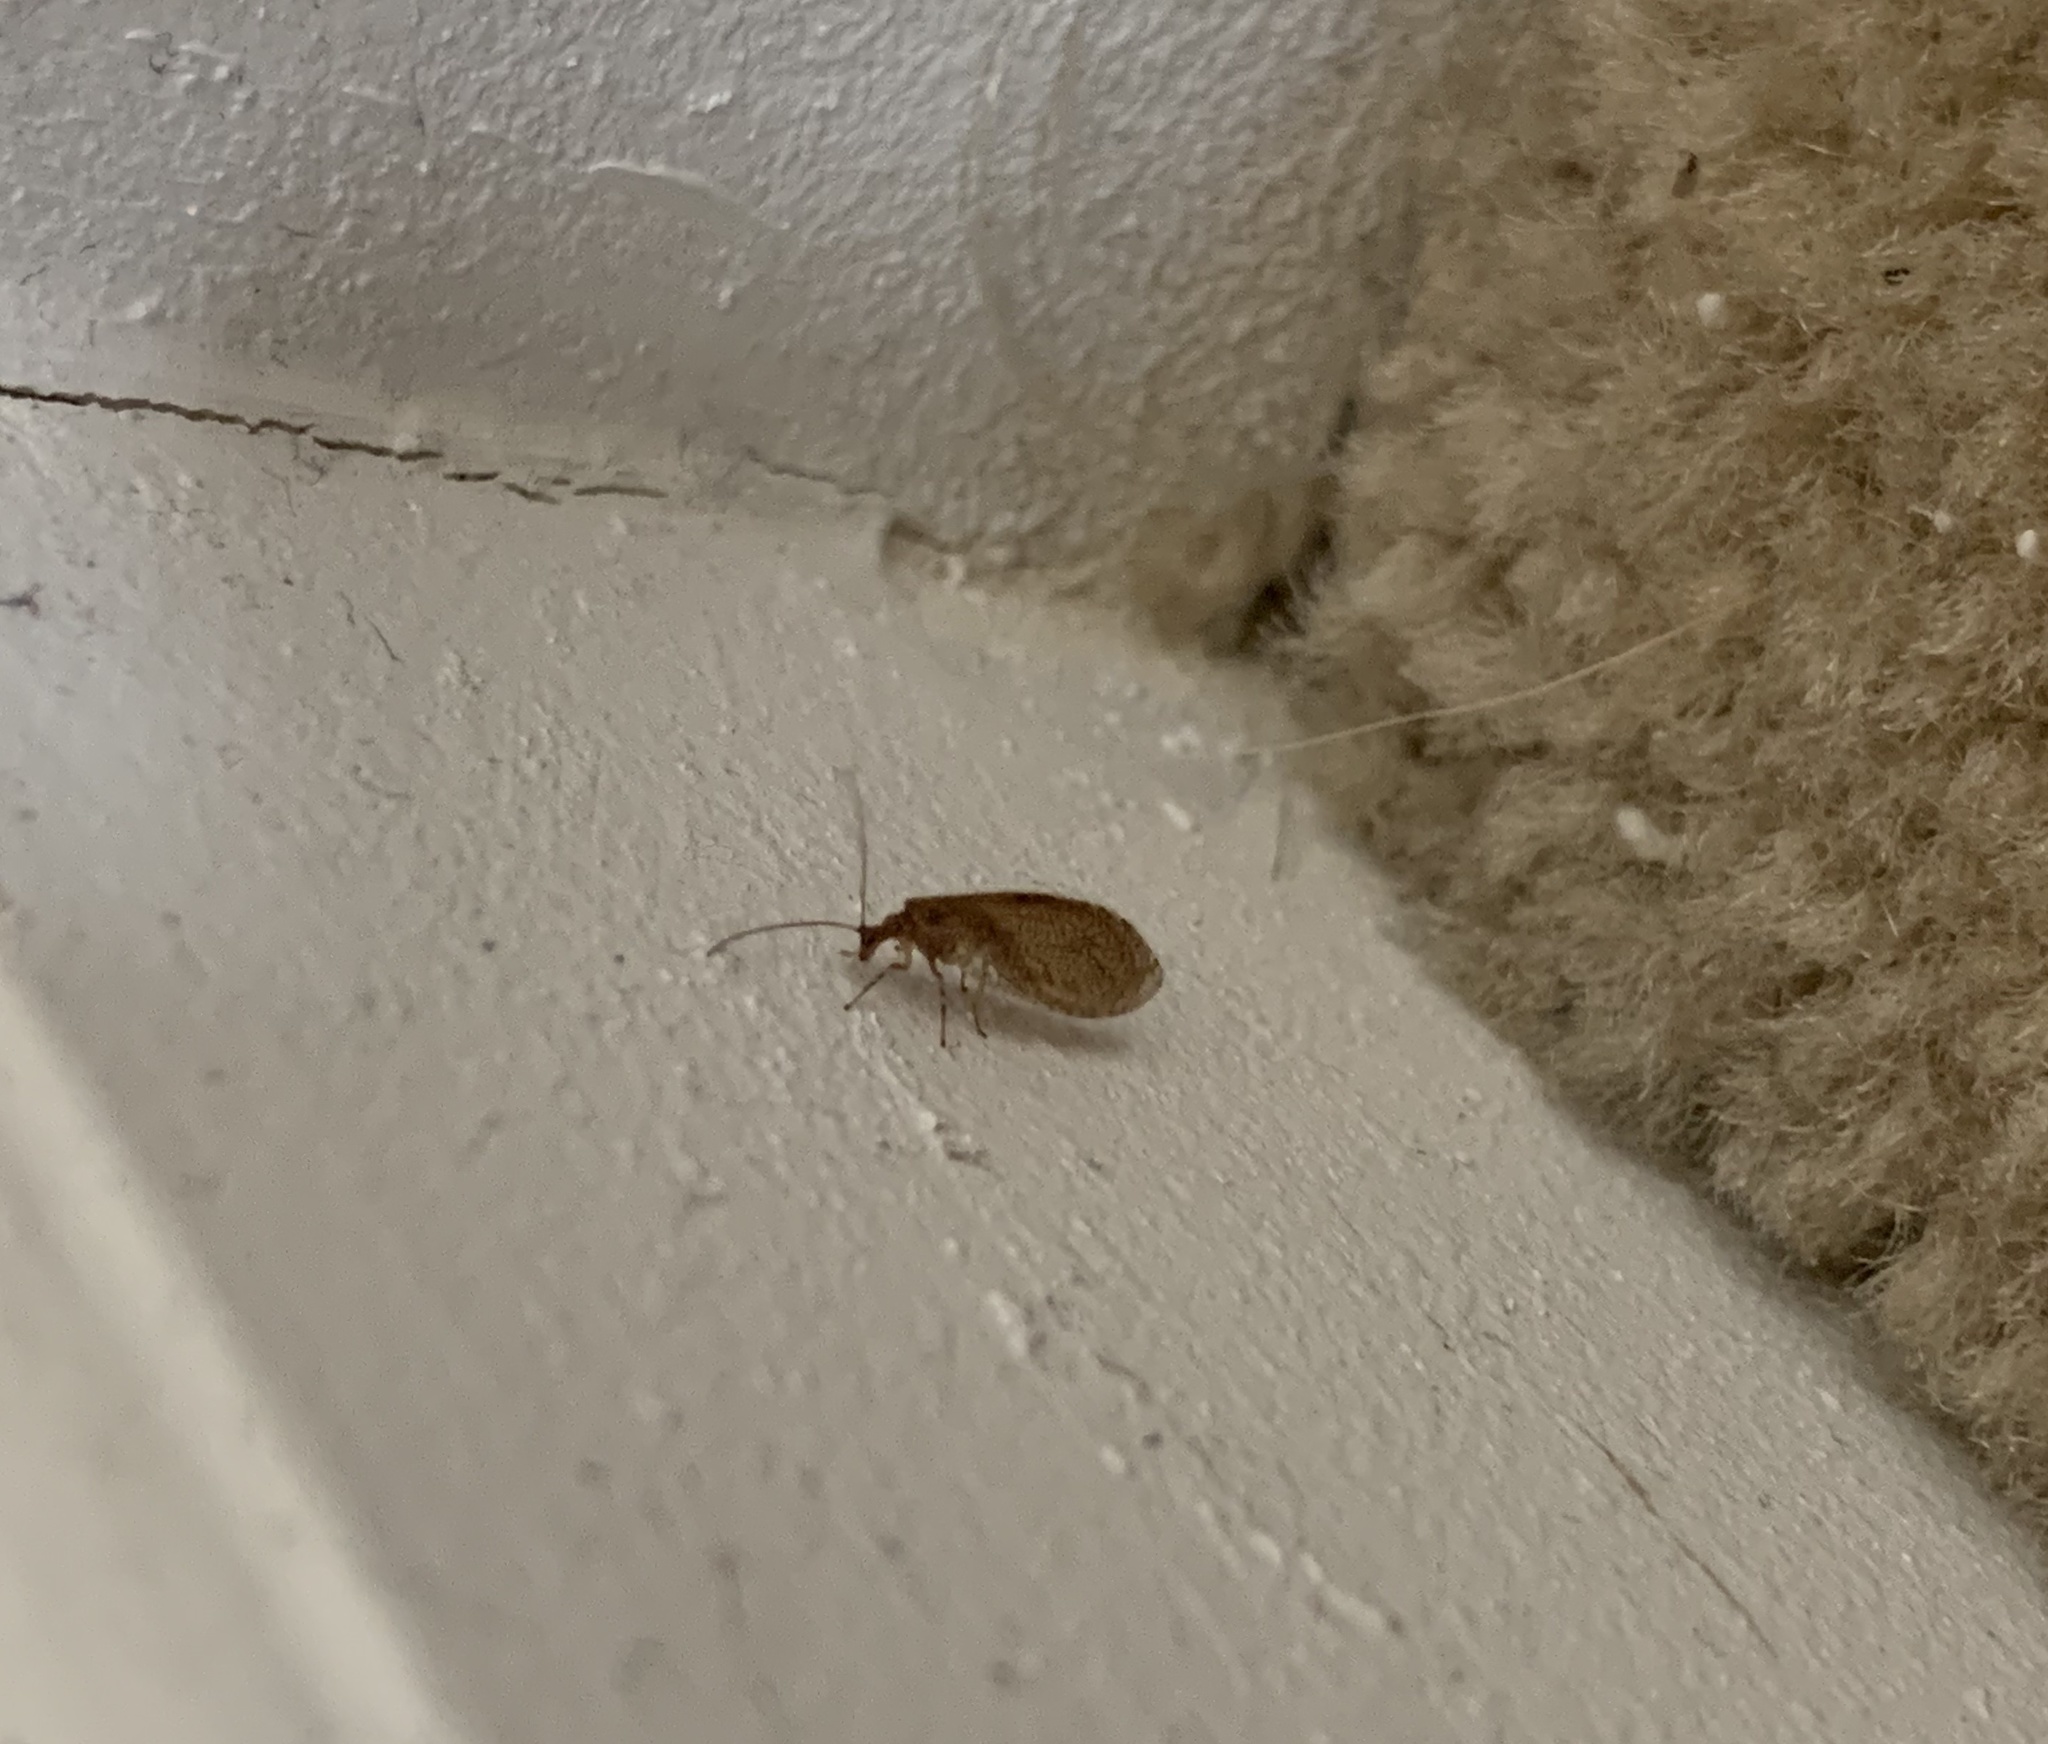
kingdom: Animalia
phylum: Arthropoda
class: Insecta
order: Neuroptera
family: Hemerobiidae
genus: Micromus
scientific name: Micromus posticus
